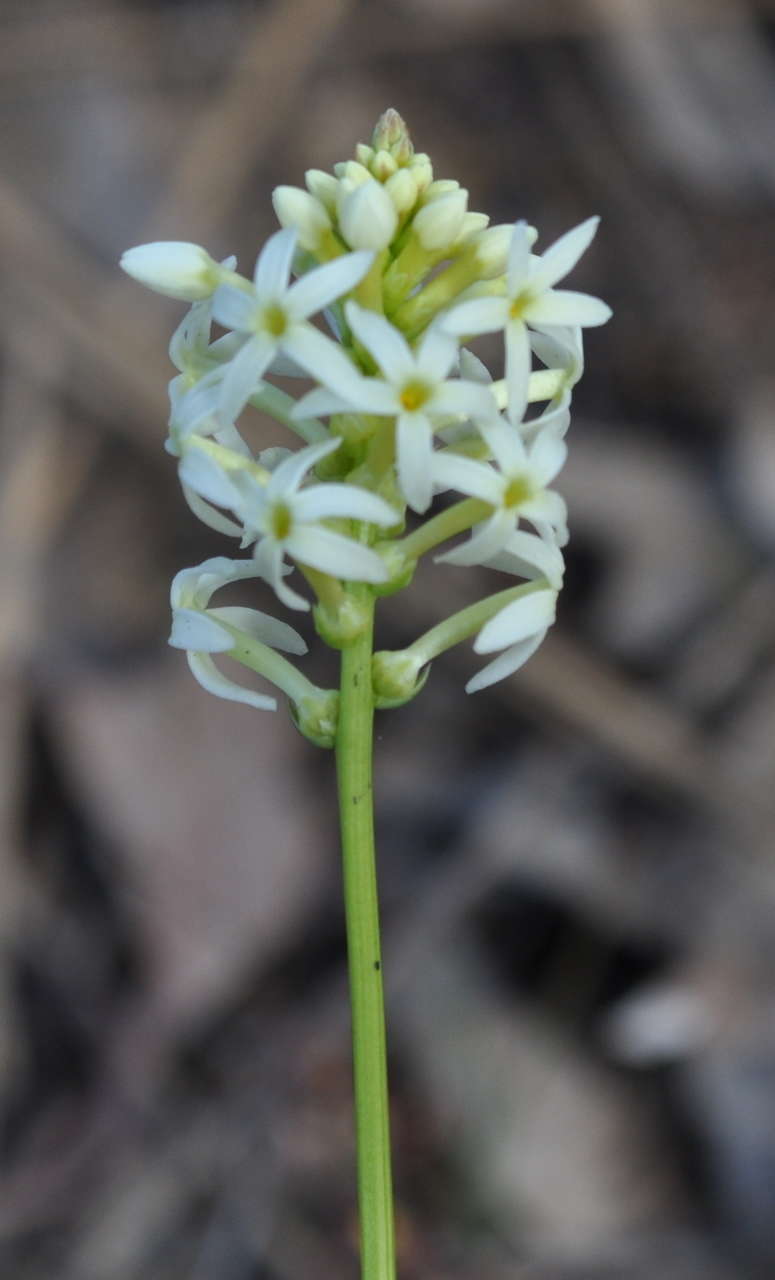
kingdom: Plantae
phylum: Tracheophyta
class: Magnoliopsida
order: Celastrales
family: Celastraceae
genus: Stackhousia
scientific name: Stackhousia monogyna
